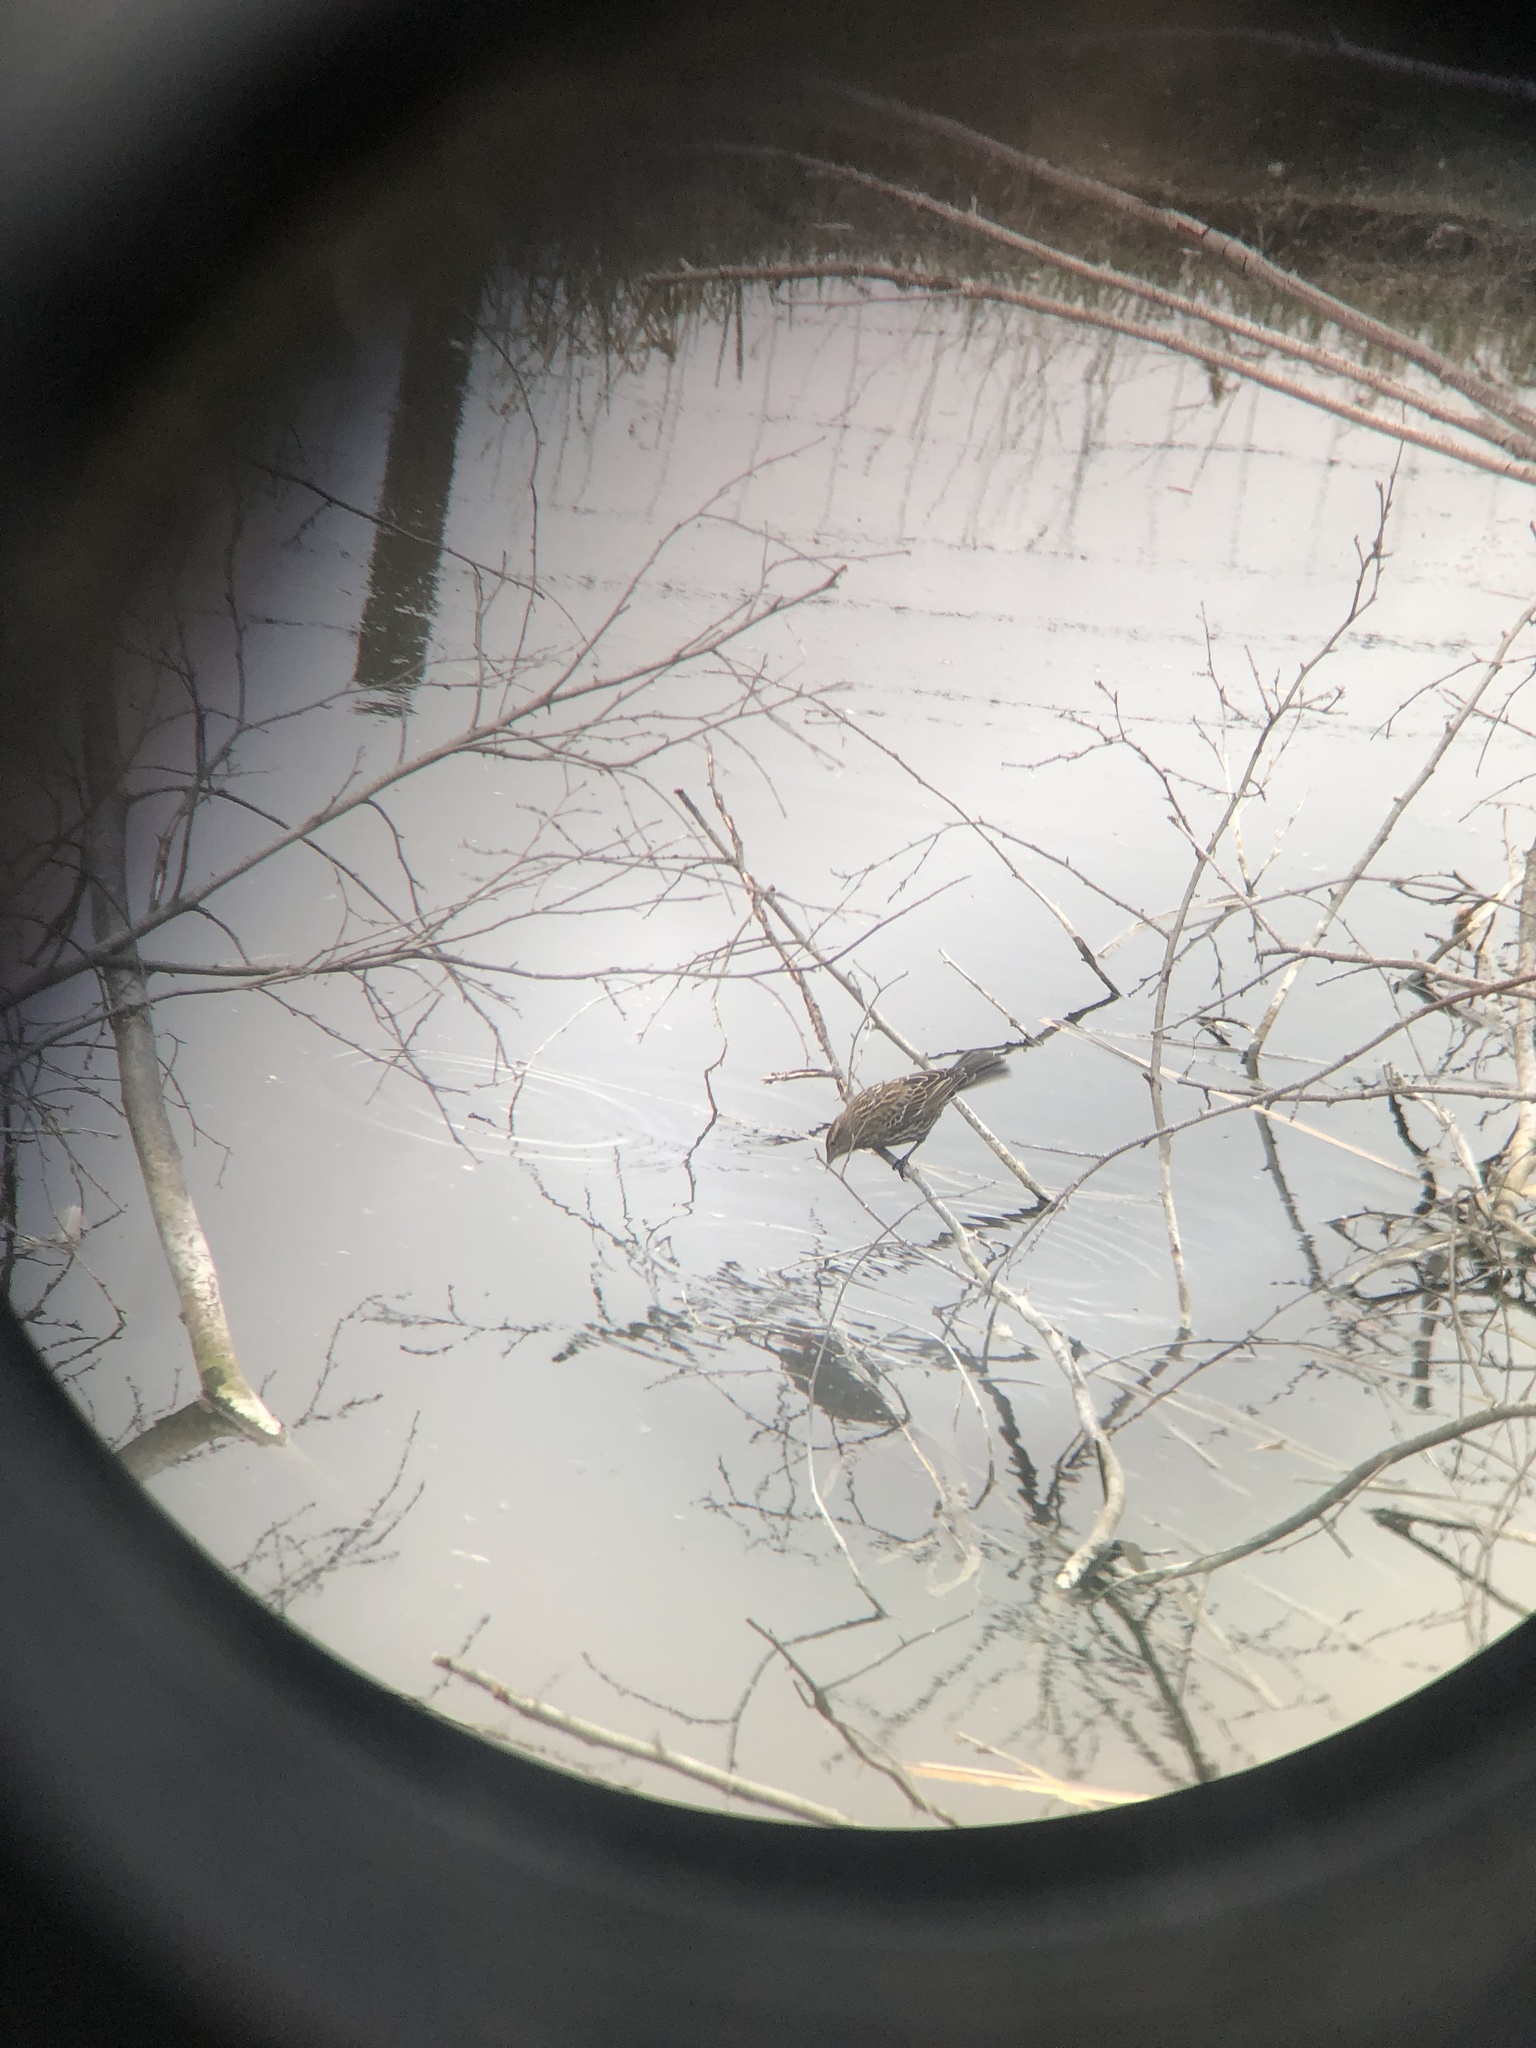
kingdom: Animalia
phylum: Chordata
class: Aves
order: Passeriformes
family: Icteridae
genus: Agelaius
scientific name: Agelaius phoeniceus
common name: Red-winged blackbird
